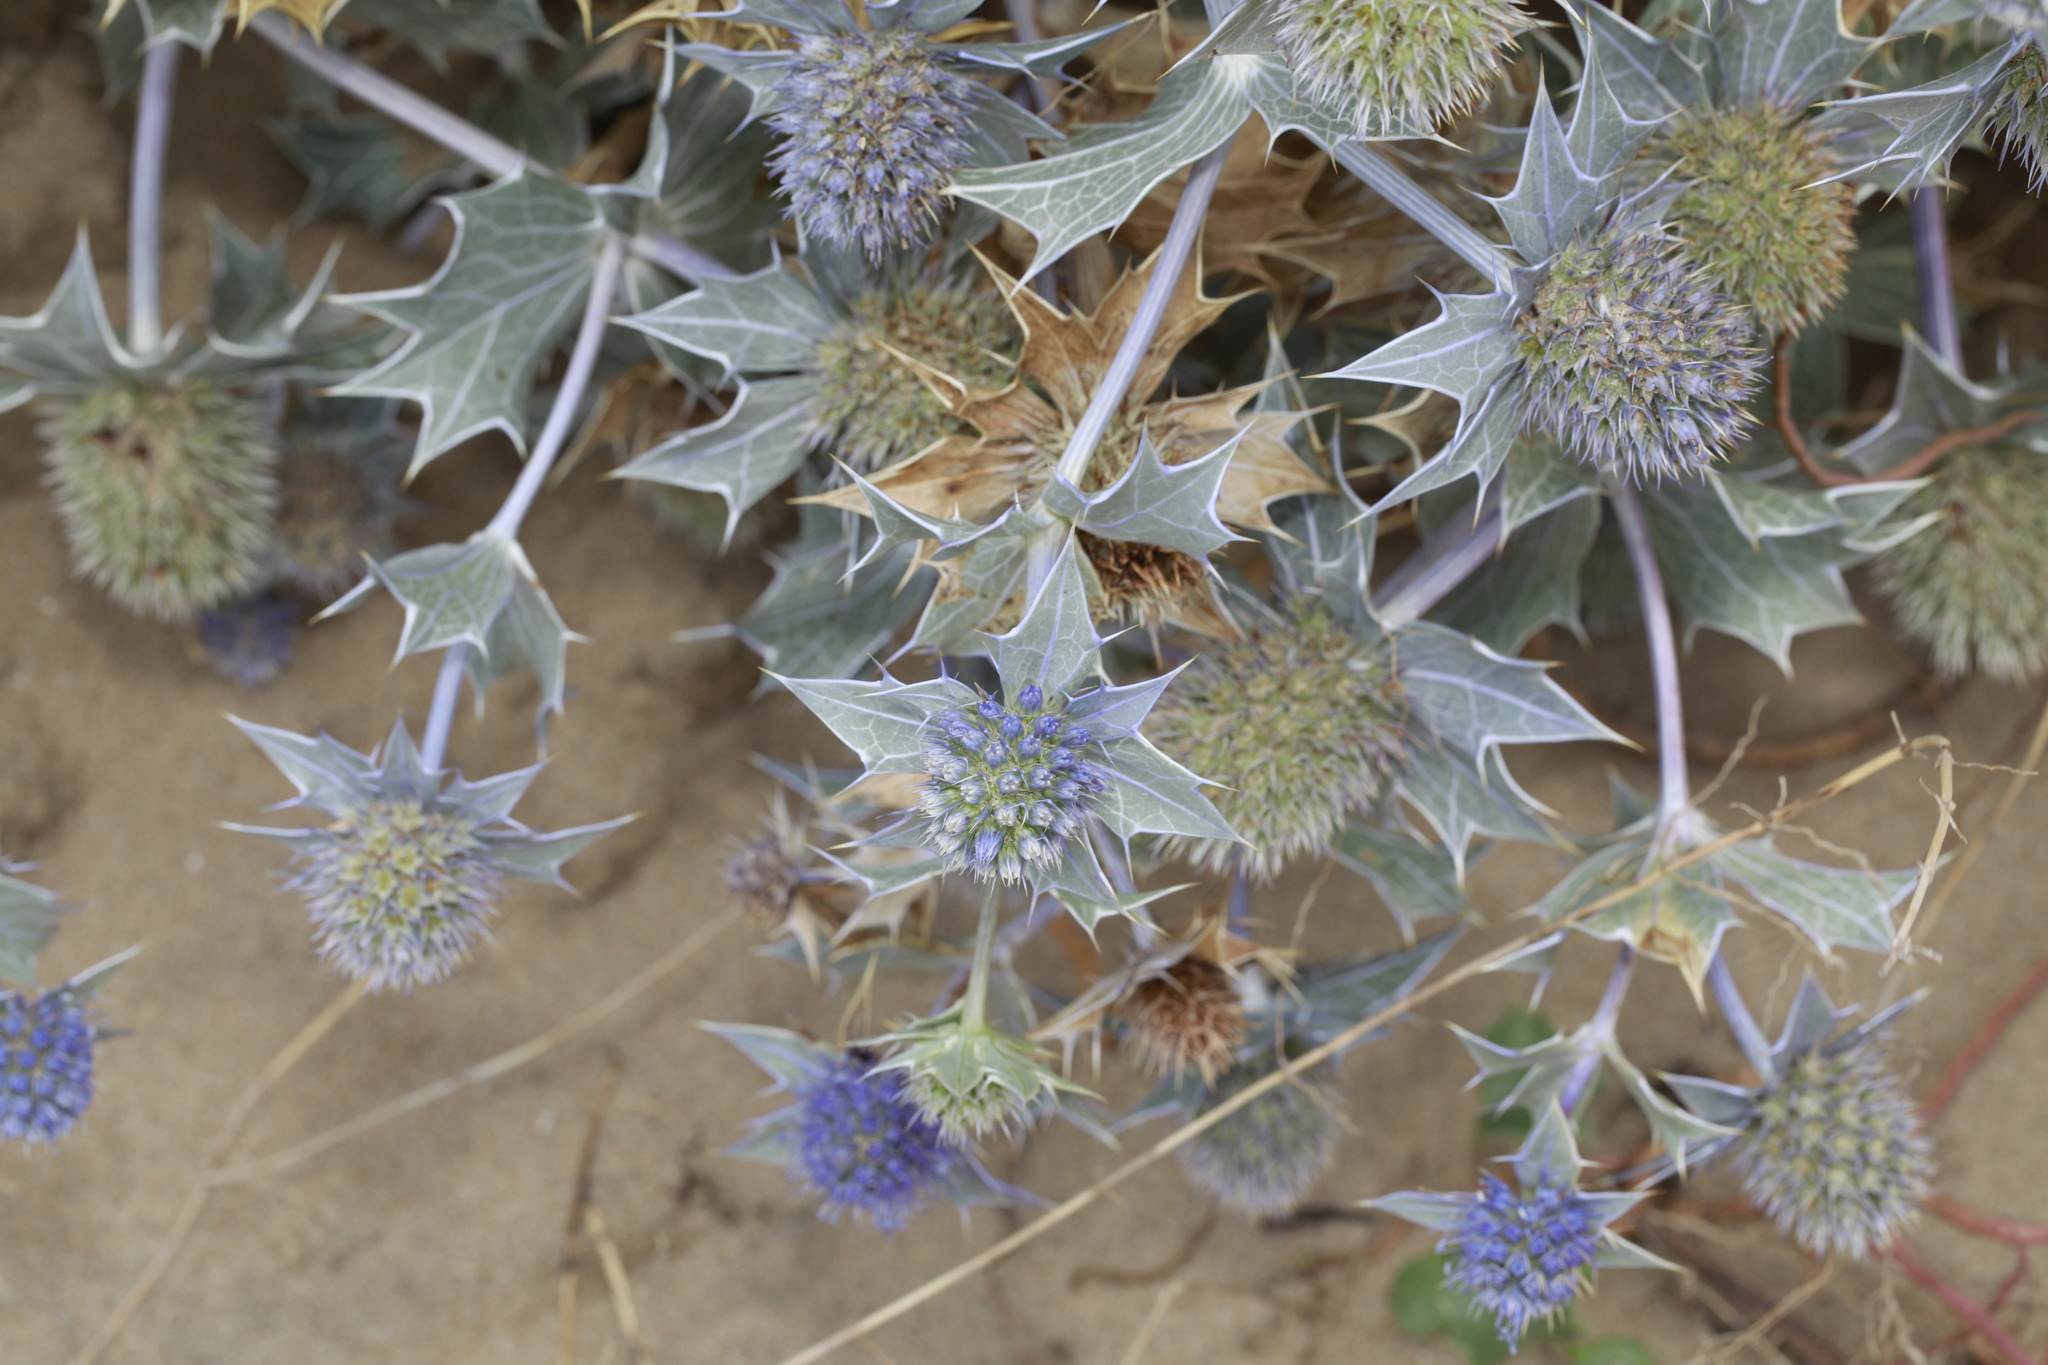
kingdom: Plantae
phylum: Tracheophyta
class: Magnoliopsida
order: Apiales
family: Apiaceae
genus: Eryngium
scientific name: Eryngium maritimum
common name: Sea-holly
